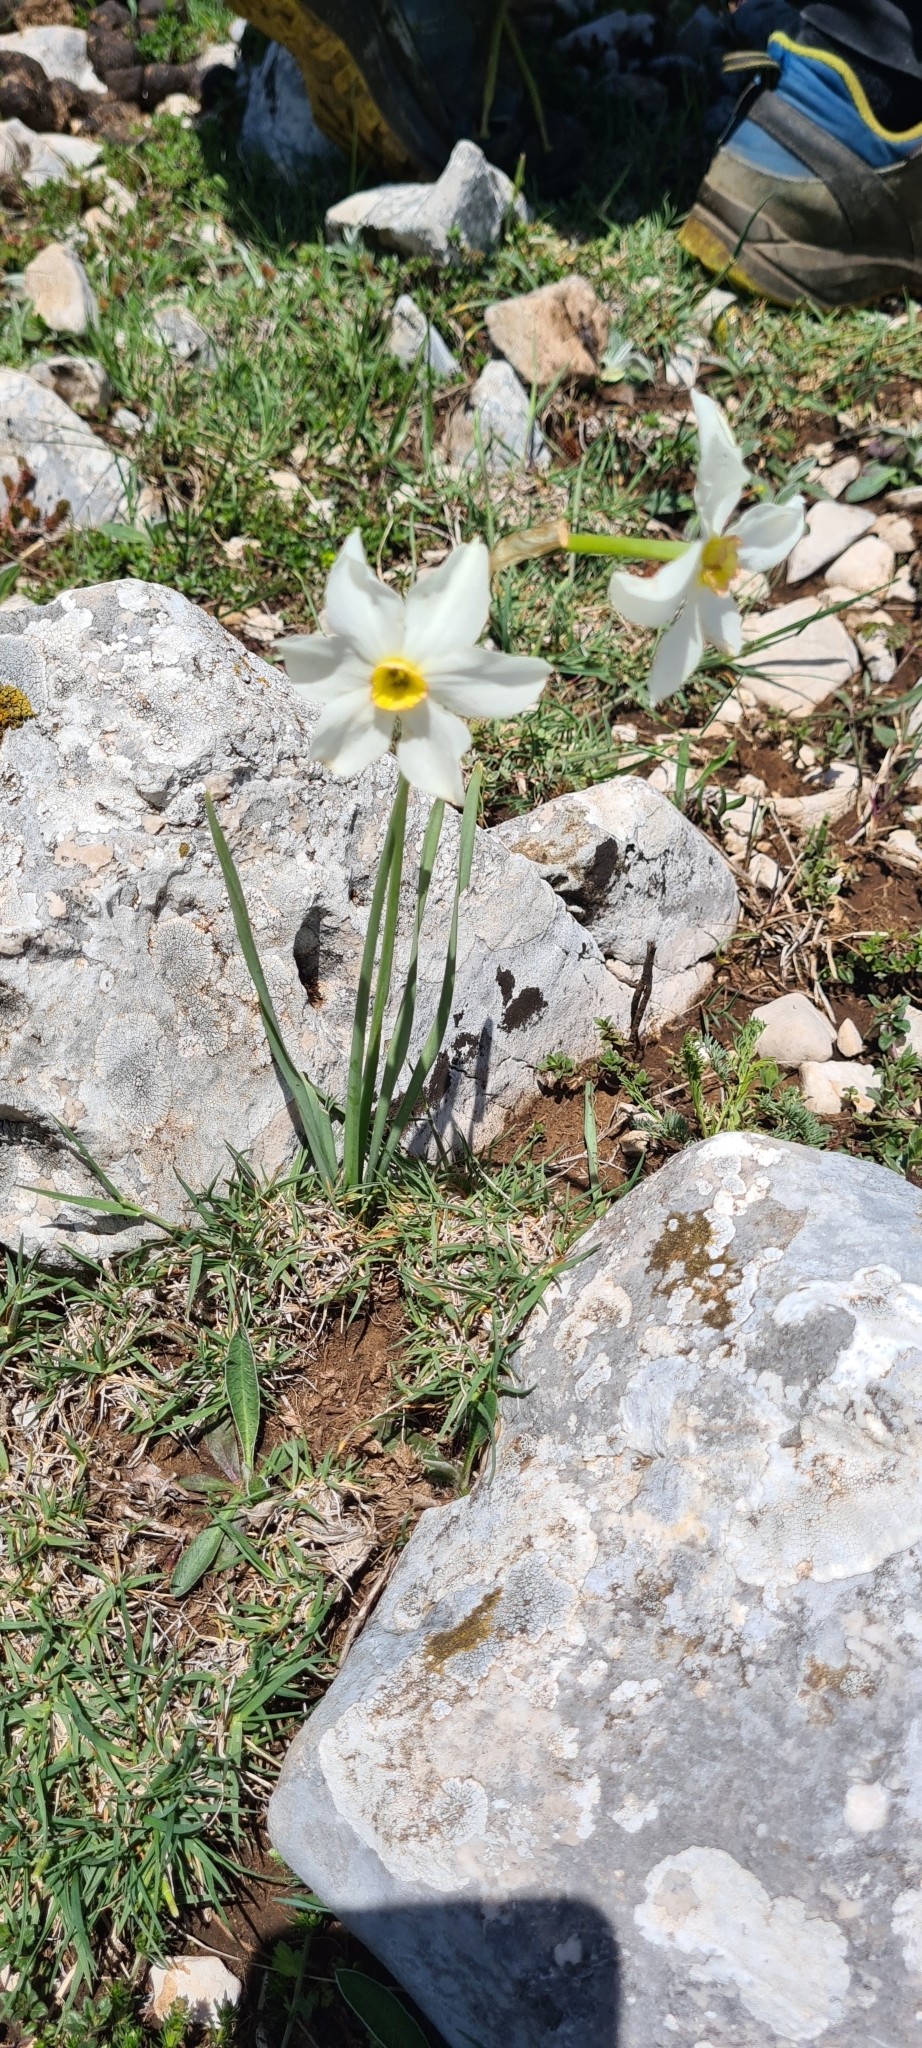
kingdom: Plantae
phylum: Tracheophyta
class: Liliopsida
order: Asparagales
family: Amaryllidaceae
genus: Narcissus
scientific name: Narcissus poeticus
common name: Pheasant's-eye daffodil
